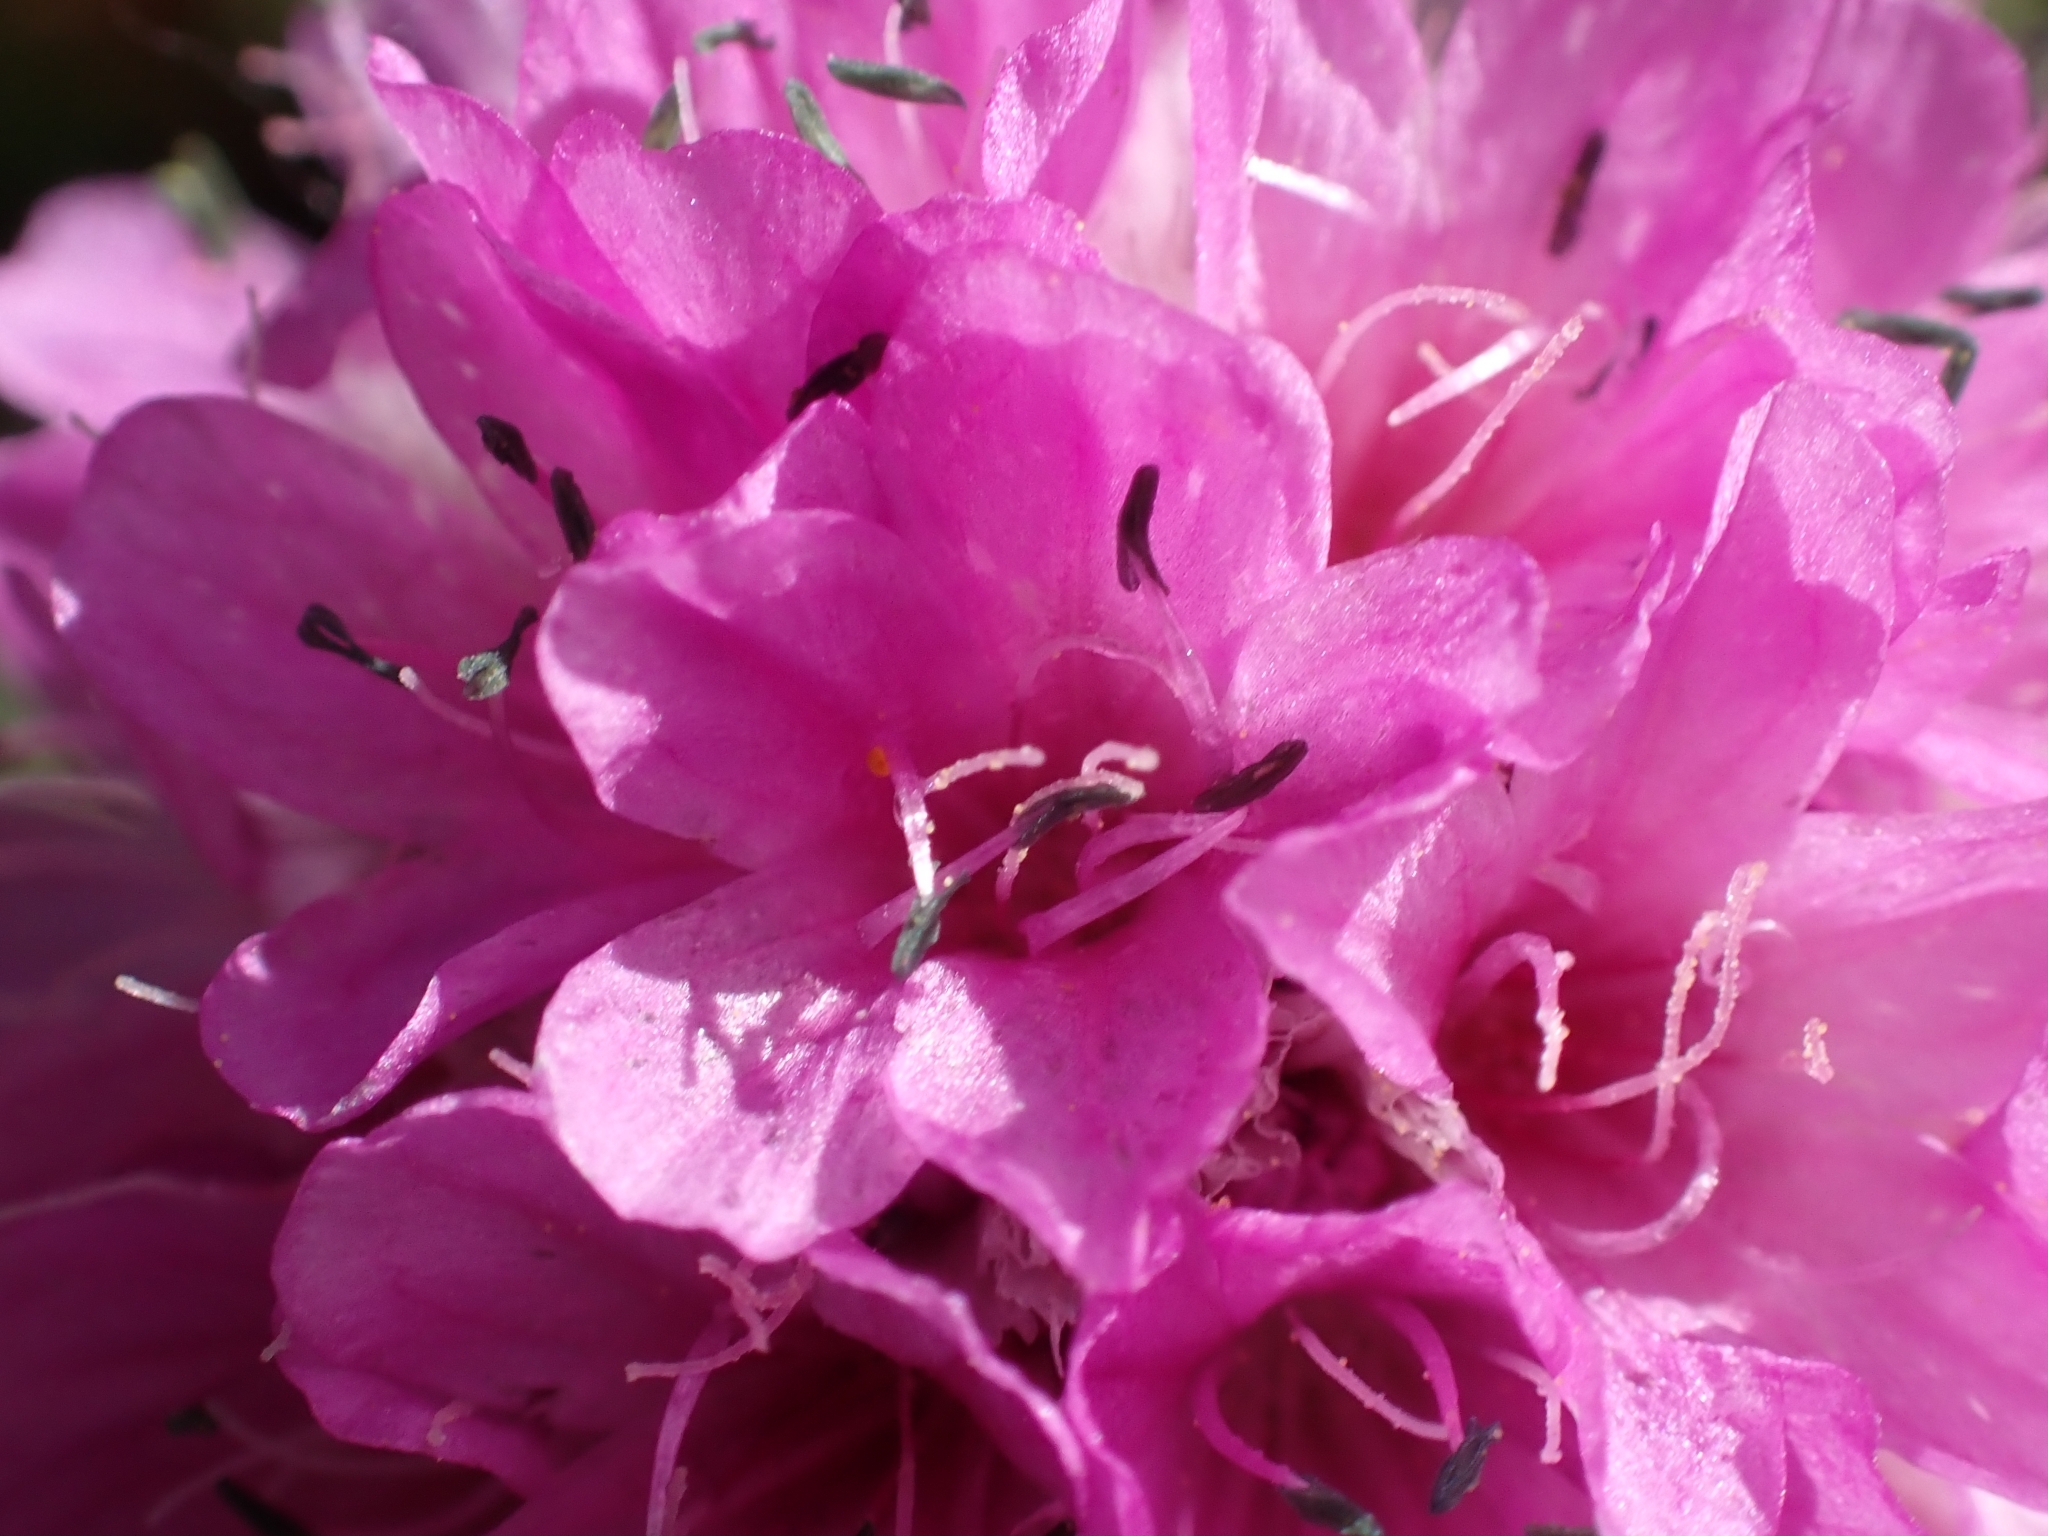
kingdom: Plantae
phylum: Tracheophyta
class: Magnoliopsida
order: Caryophyllales
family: Plumbaginaceae
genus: Armeria
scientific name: Armeria alpina
